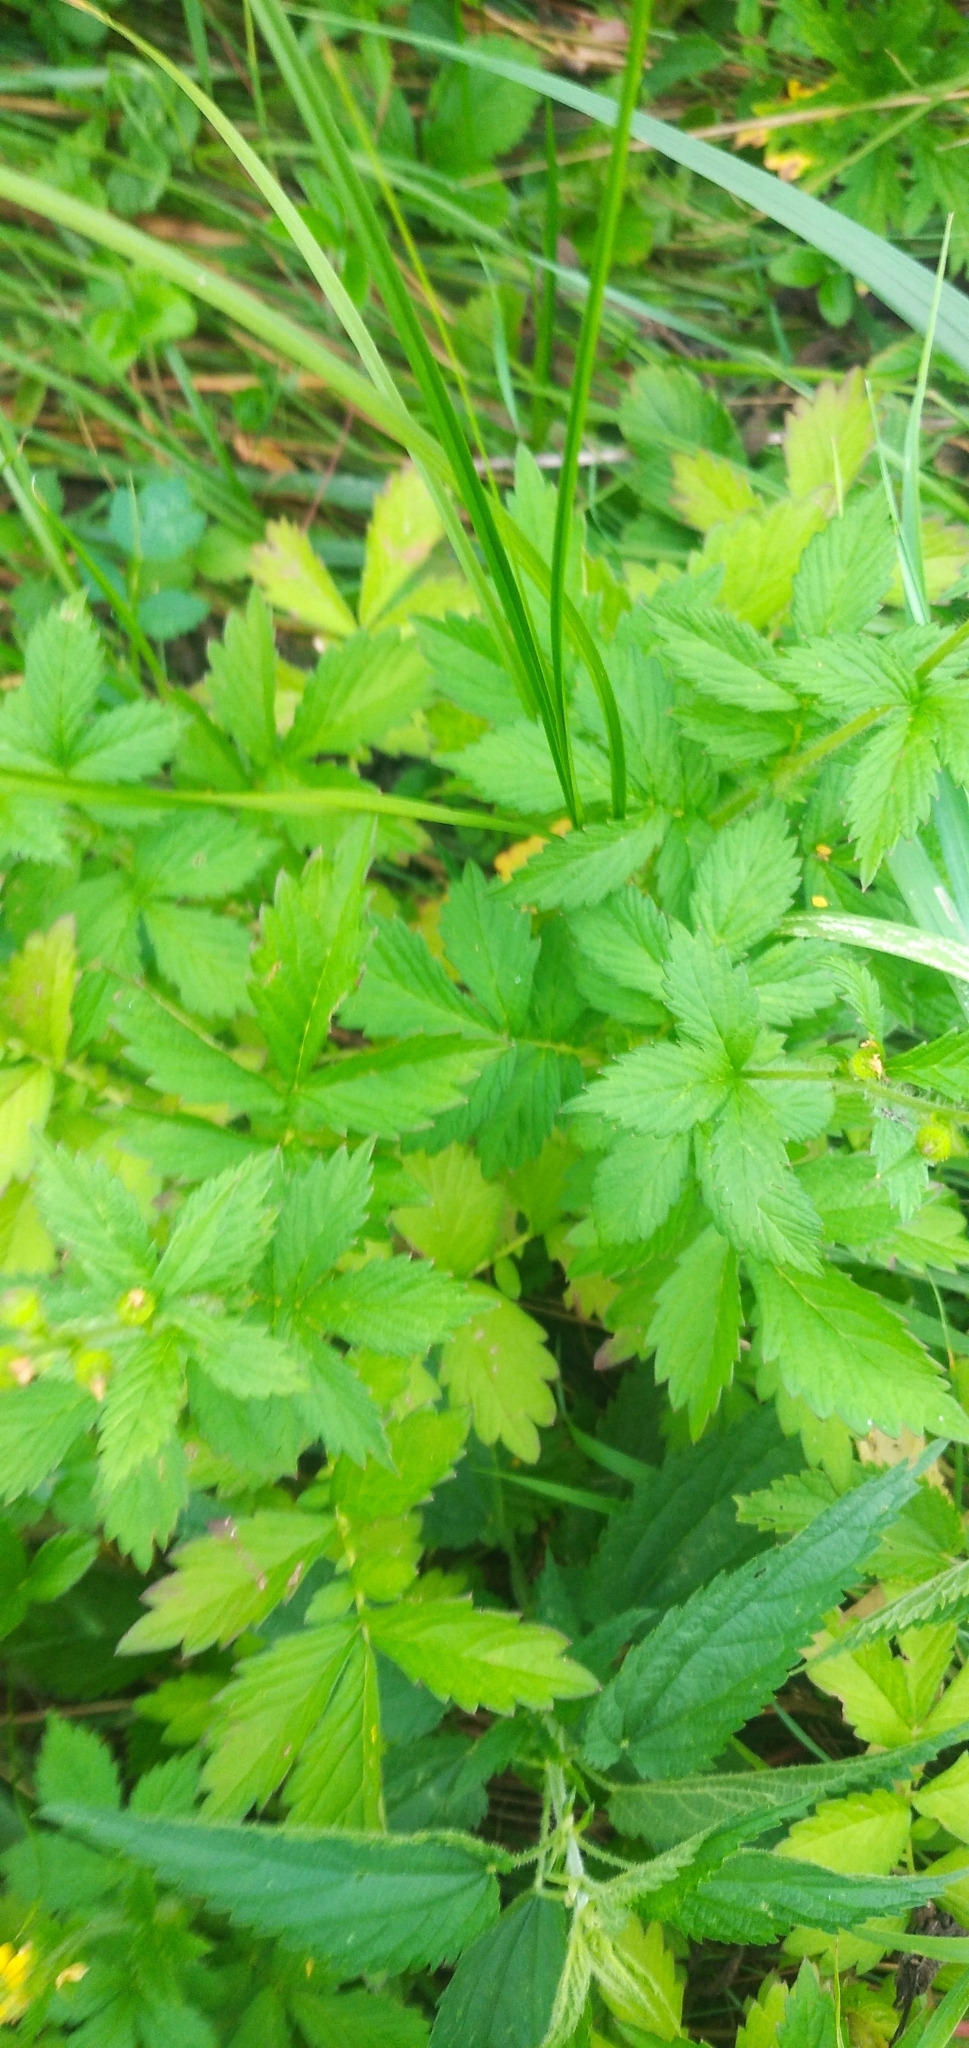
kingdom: Plantae
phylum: Tracheophyta
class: Magnoliopsida
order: Rosales
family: Rosaceae
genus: Agrimonia
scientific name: Agrimonia pilosa
